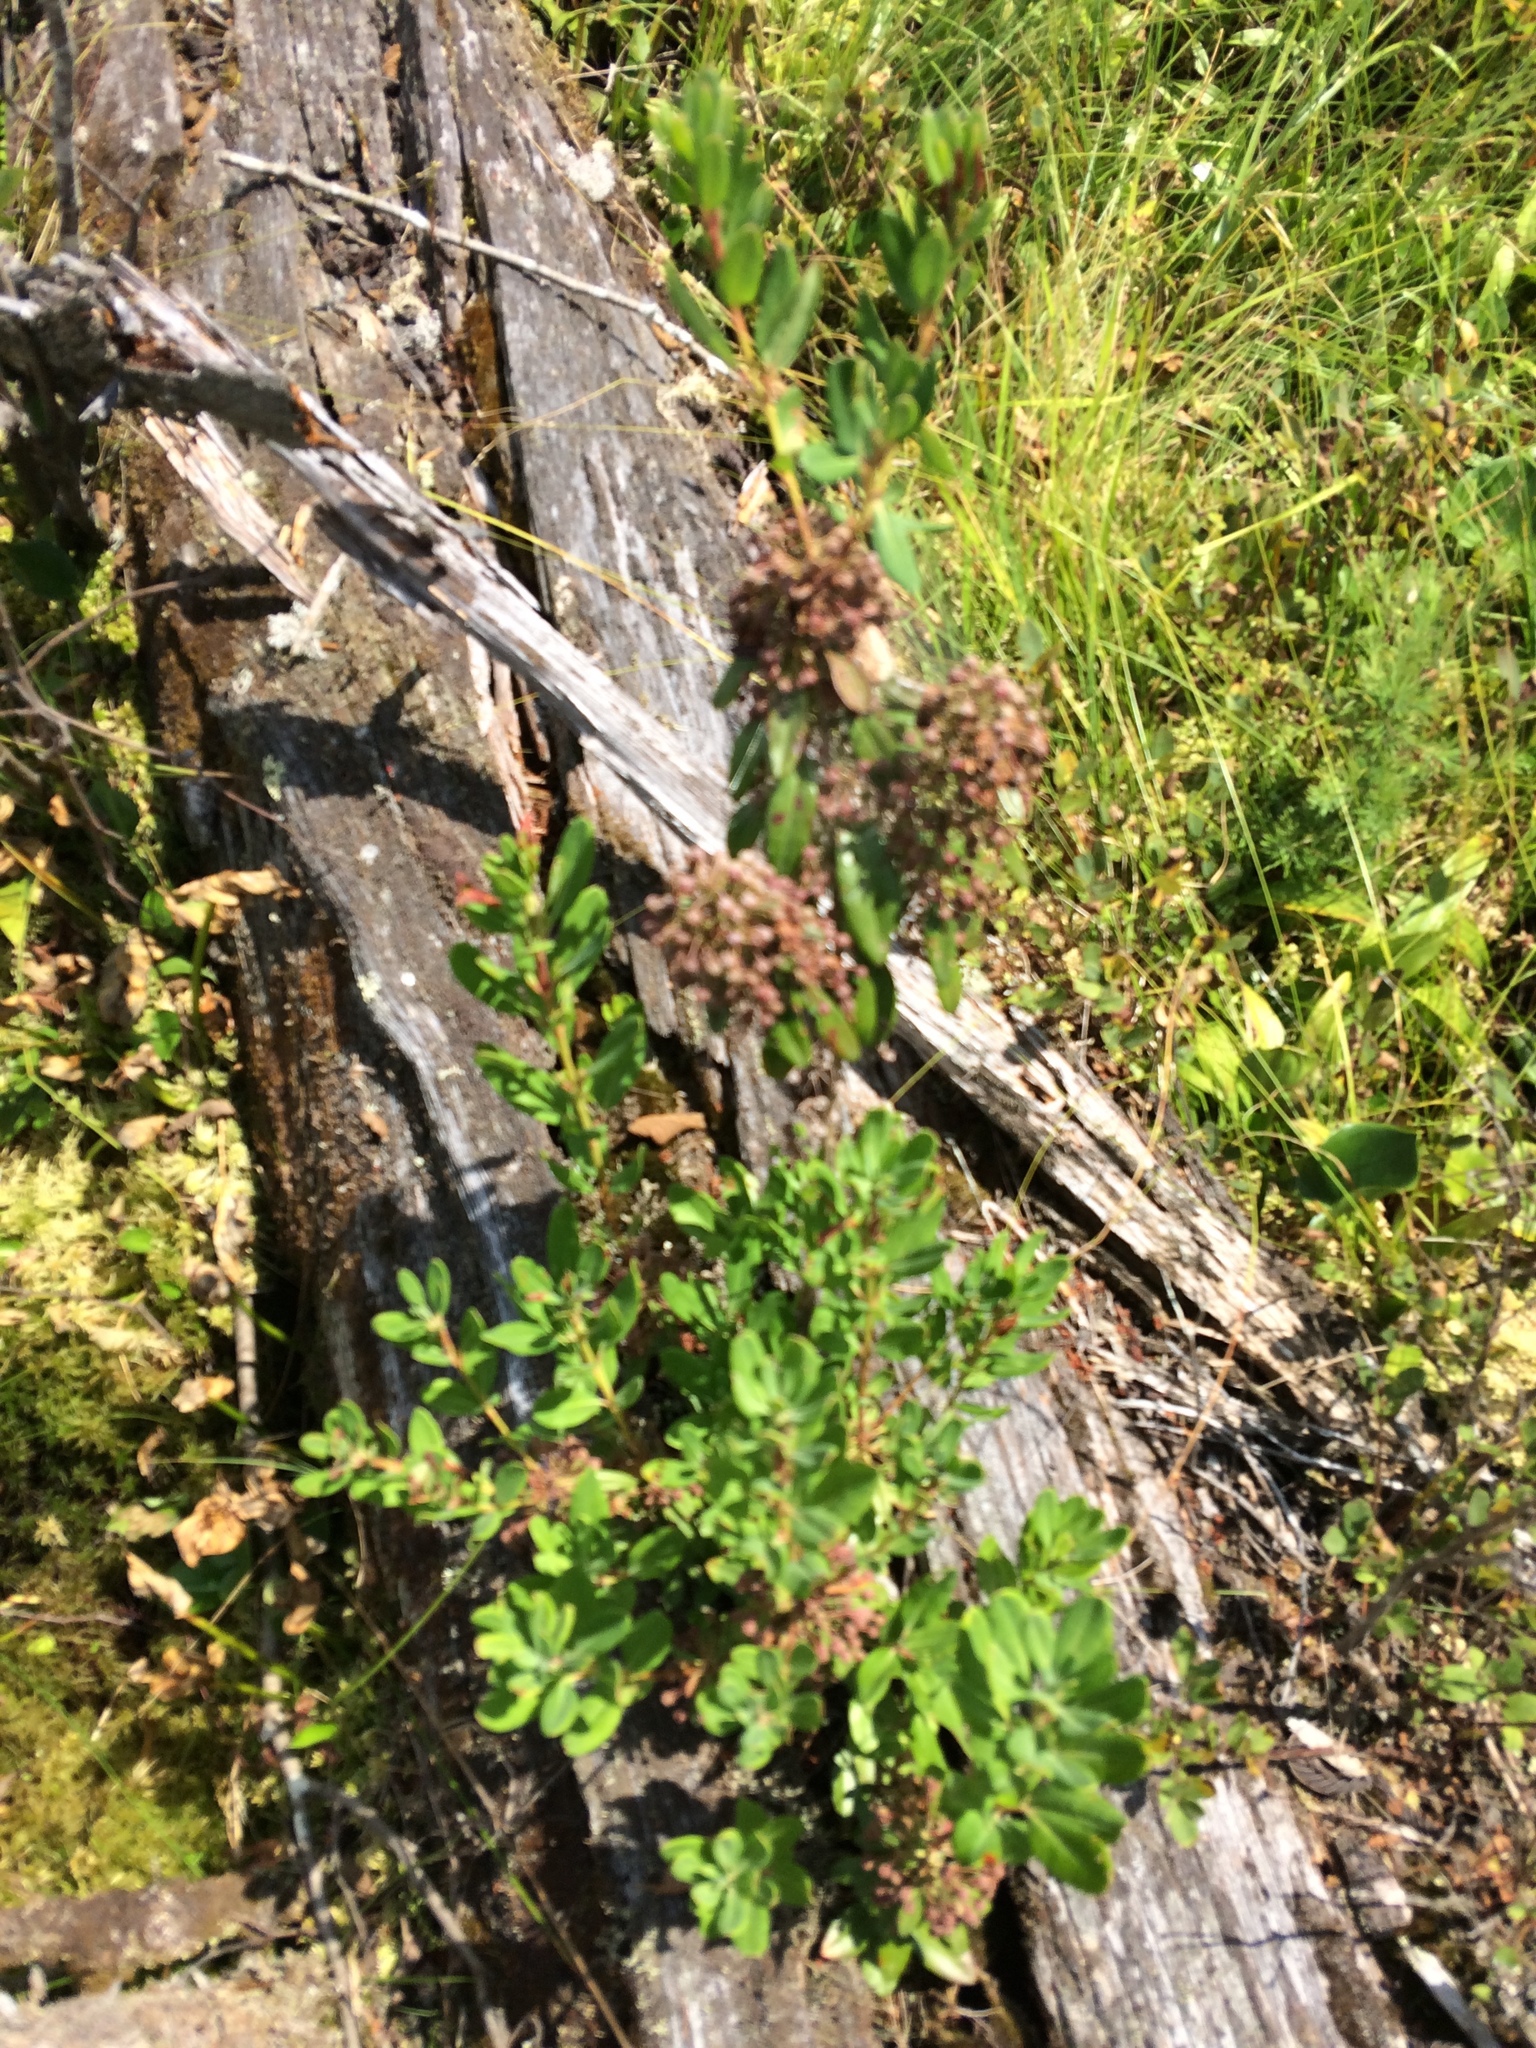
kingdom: Plantae
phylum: Tracheophyta
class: Magnoliopsida
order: Ericales
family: Ericaceae
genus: Kalmia
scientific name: Kalmia angustifolia
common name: Sheep-laurel
